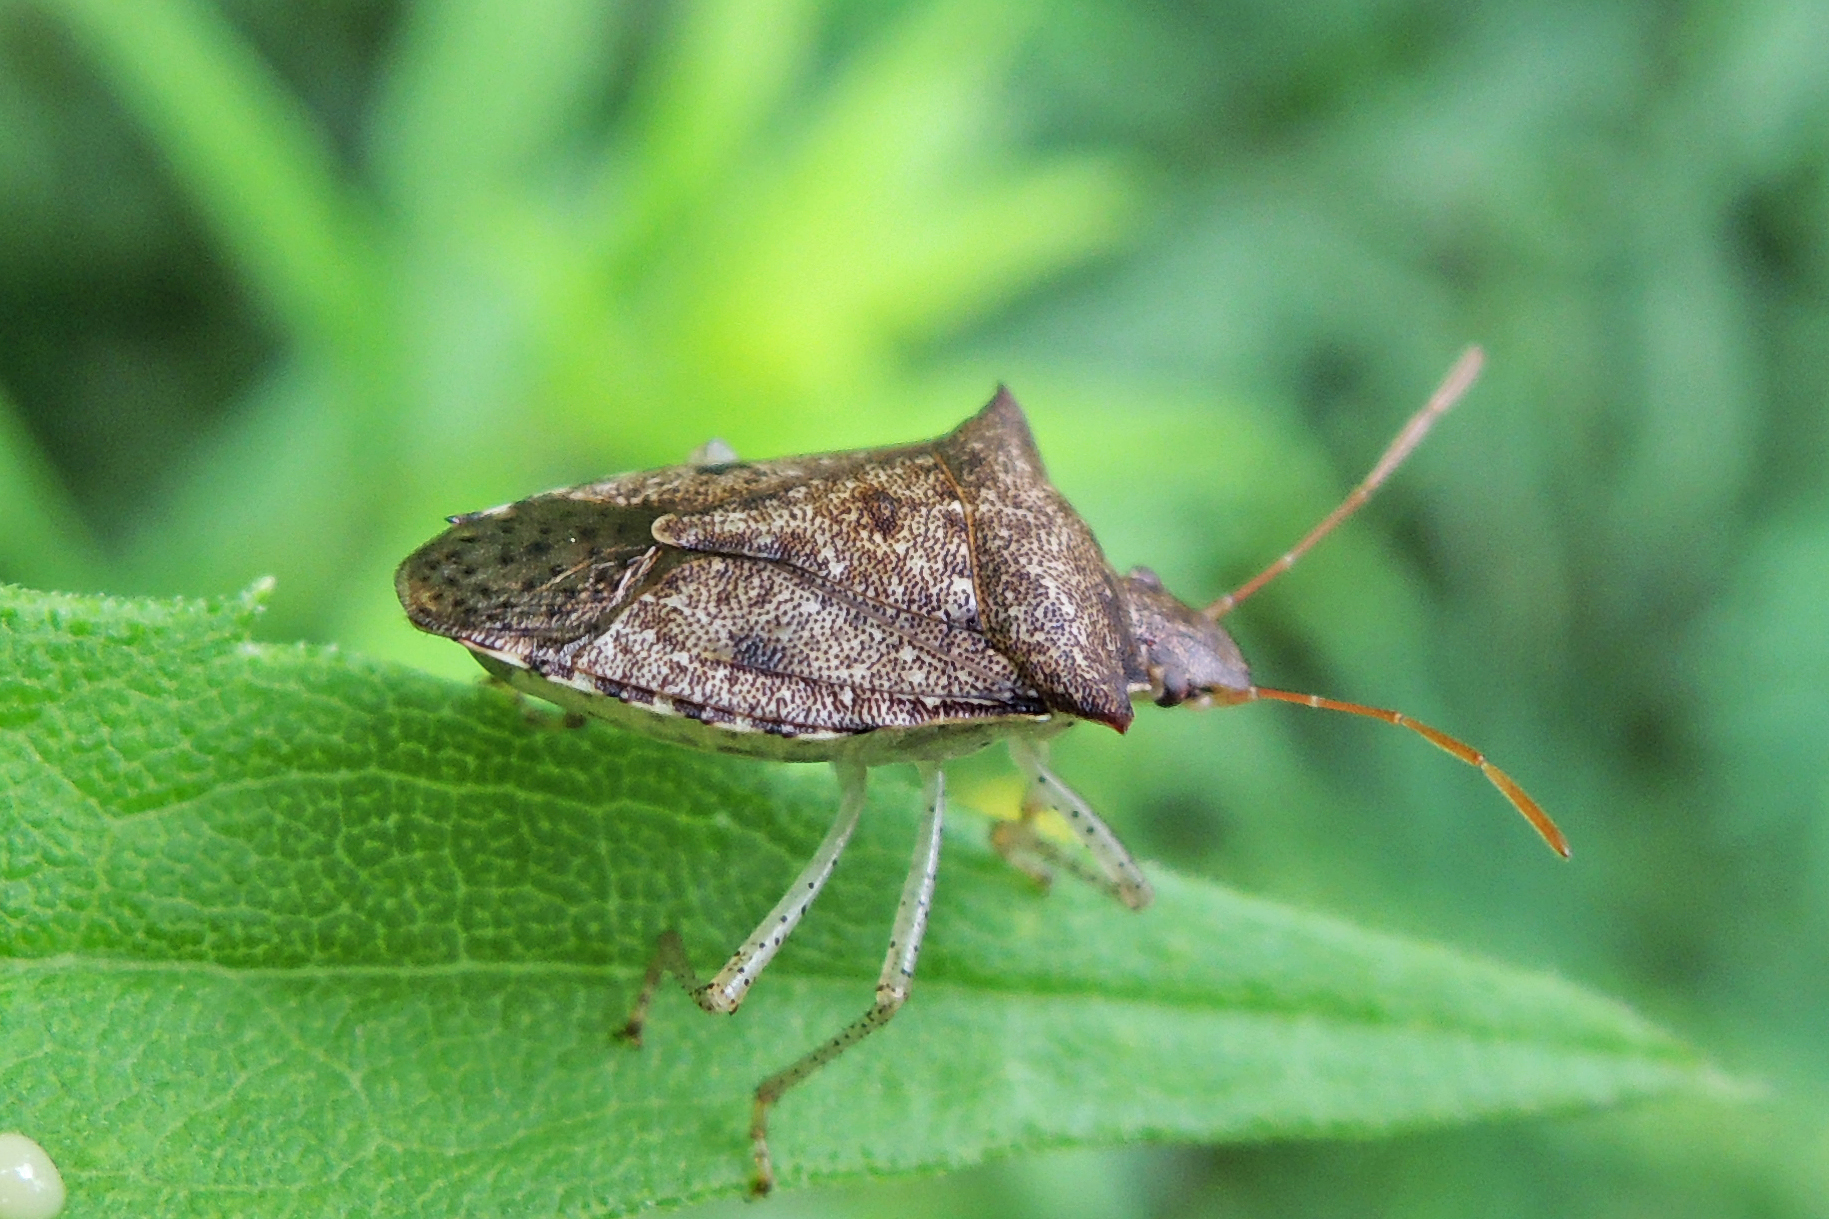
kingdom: Animalia
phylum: Arthropoda
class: Insecta
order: Hemiptera
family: Pentatomidae
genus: Euschistus
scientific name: Euschistus tristigmus
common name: Dusky stink bug
